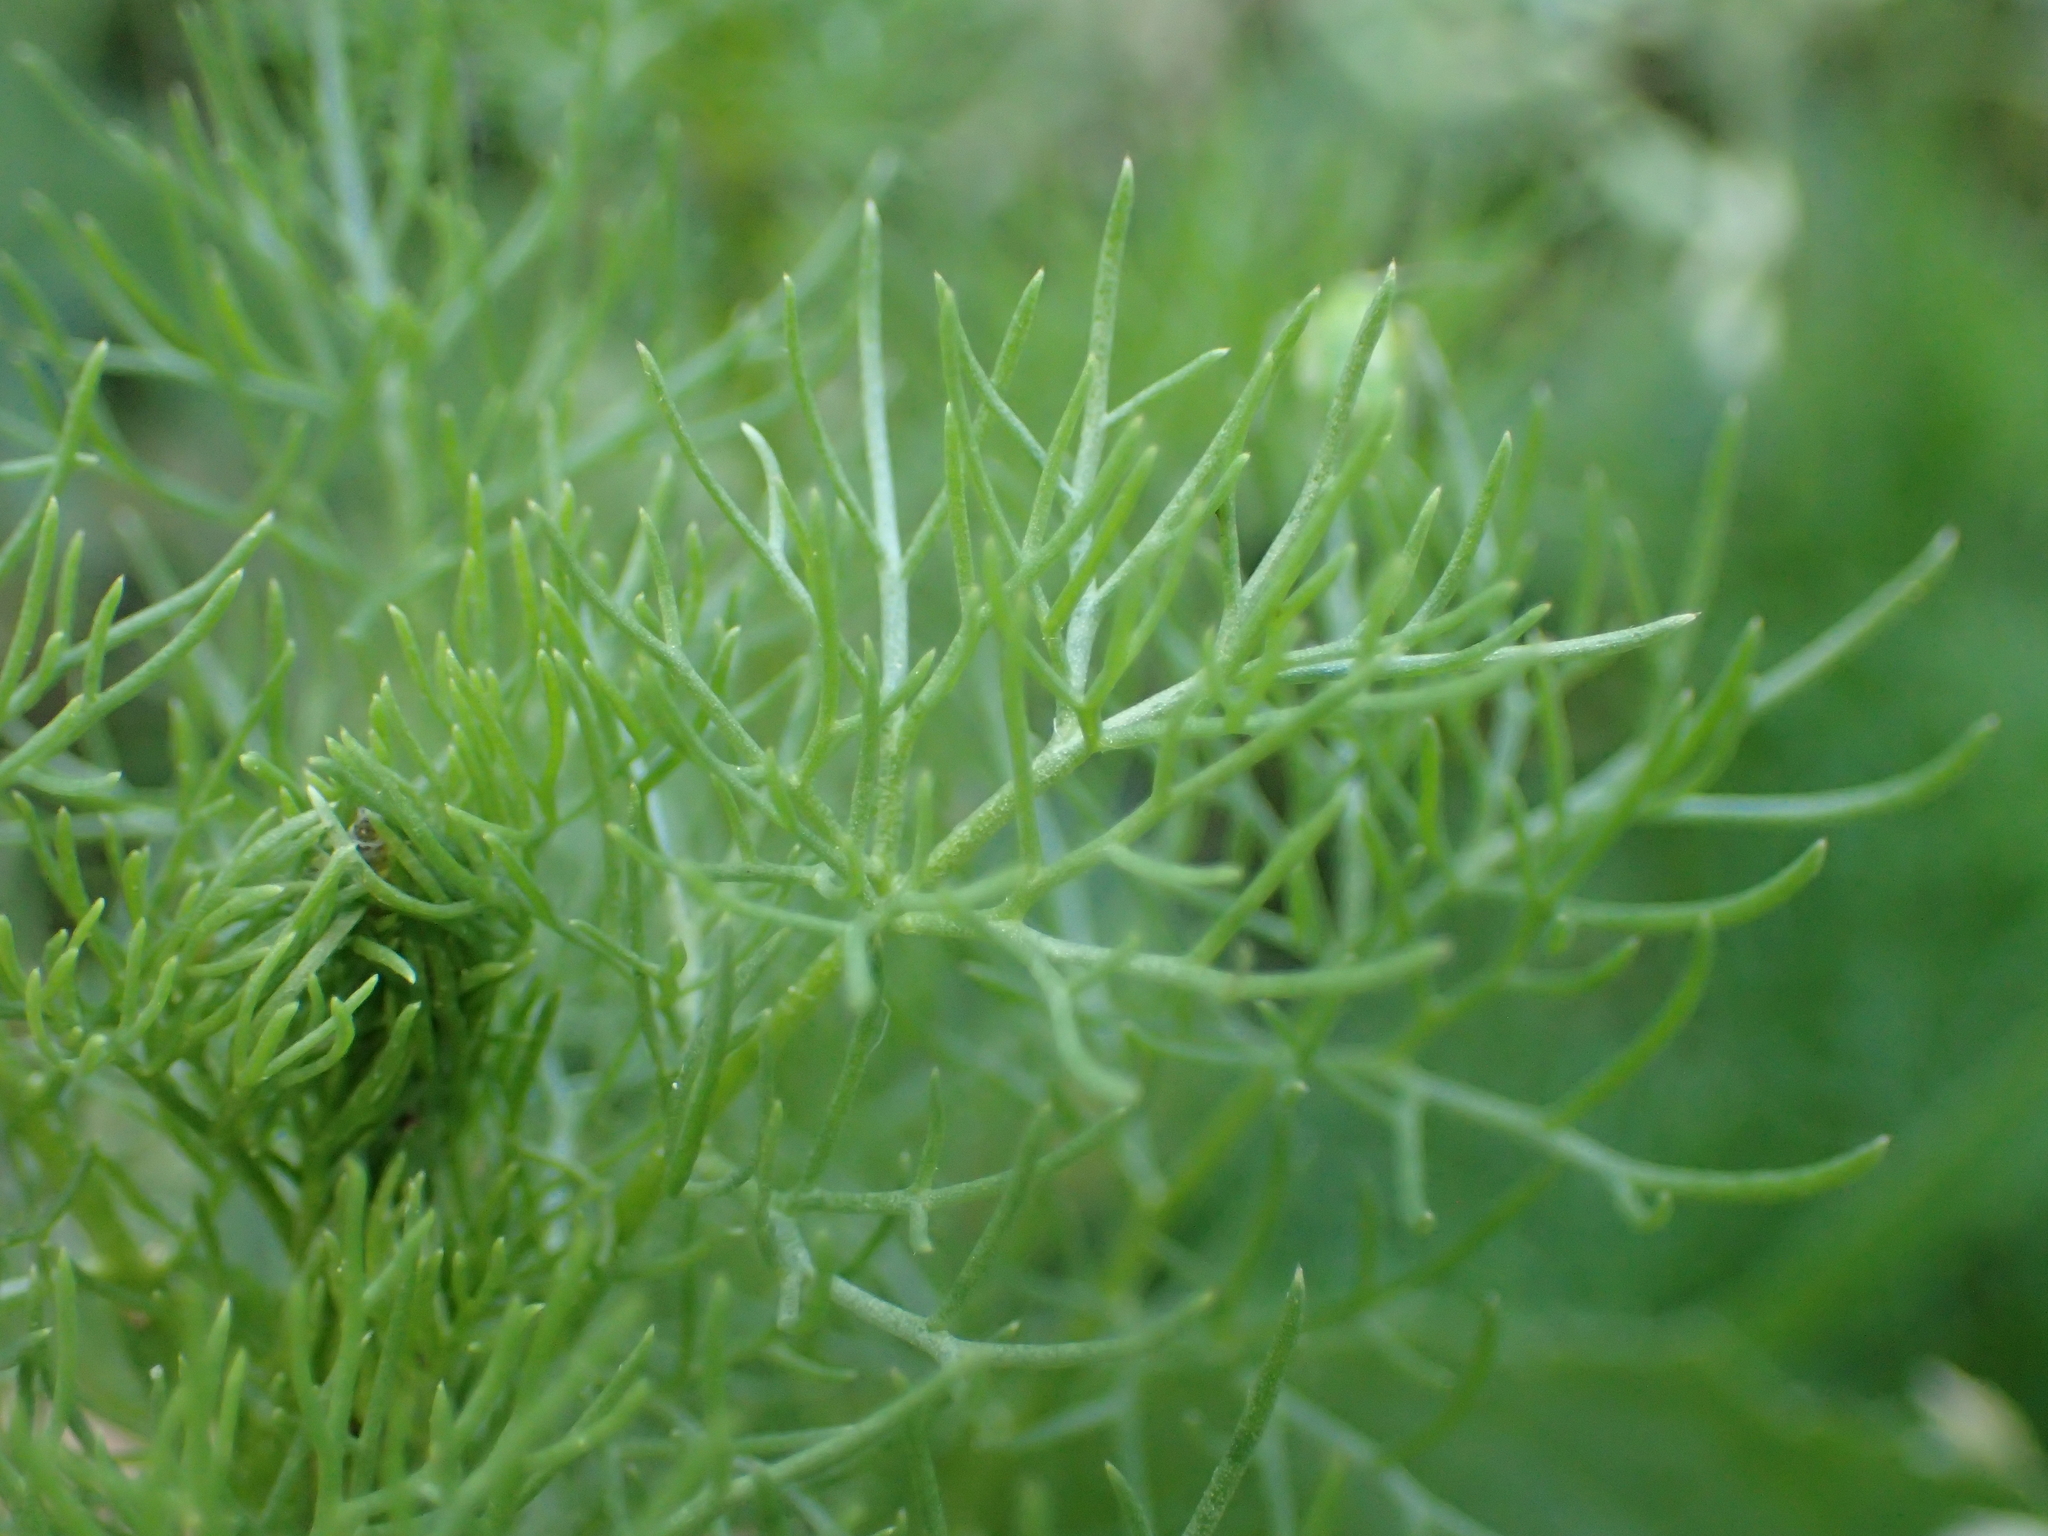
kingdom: Plantae
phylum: Tracheophyta
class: Magnoliopsida
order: Asterales
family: Asteraceae
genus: Tripleurospermum
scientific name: Tripleurospermum inodorum
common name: Scentless mayweed
